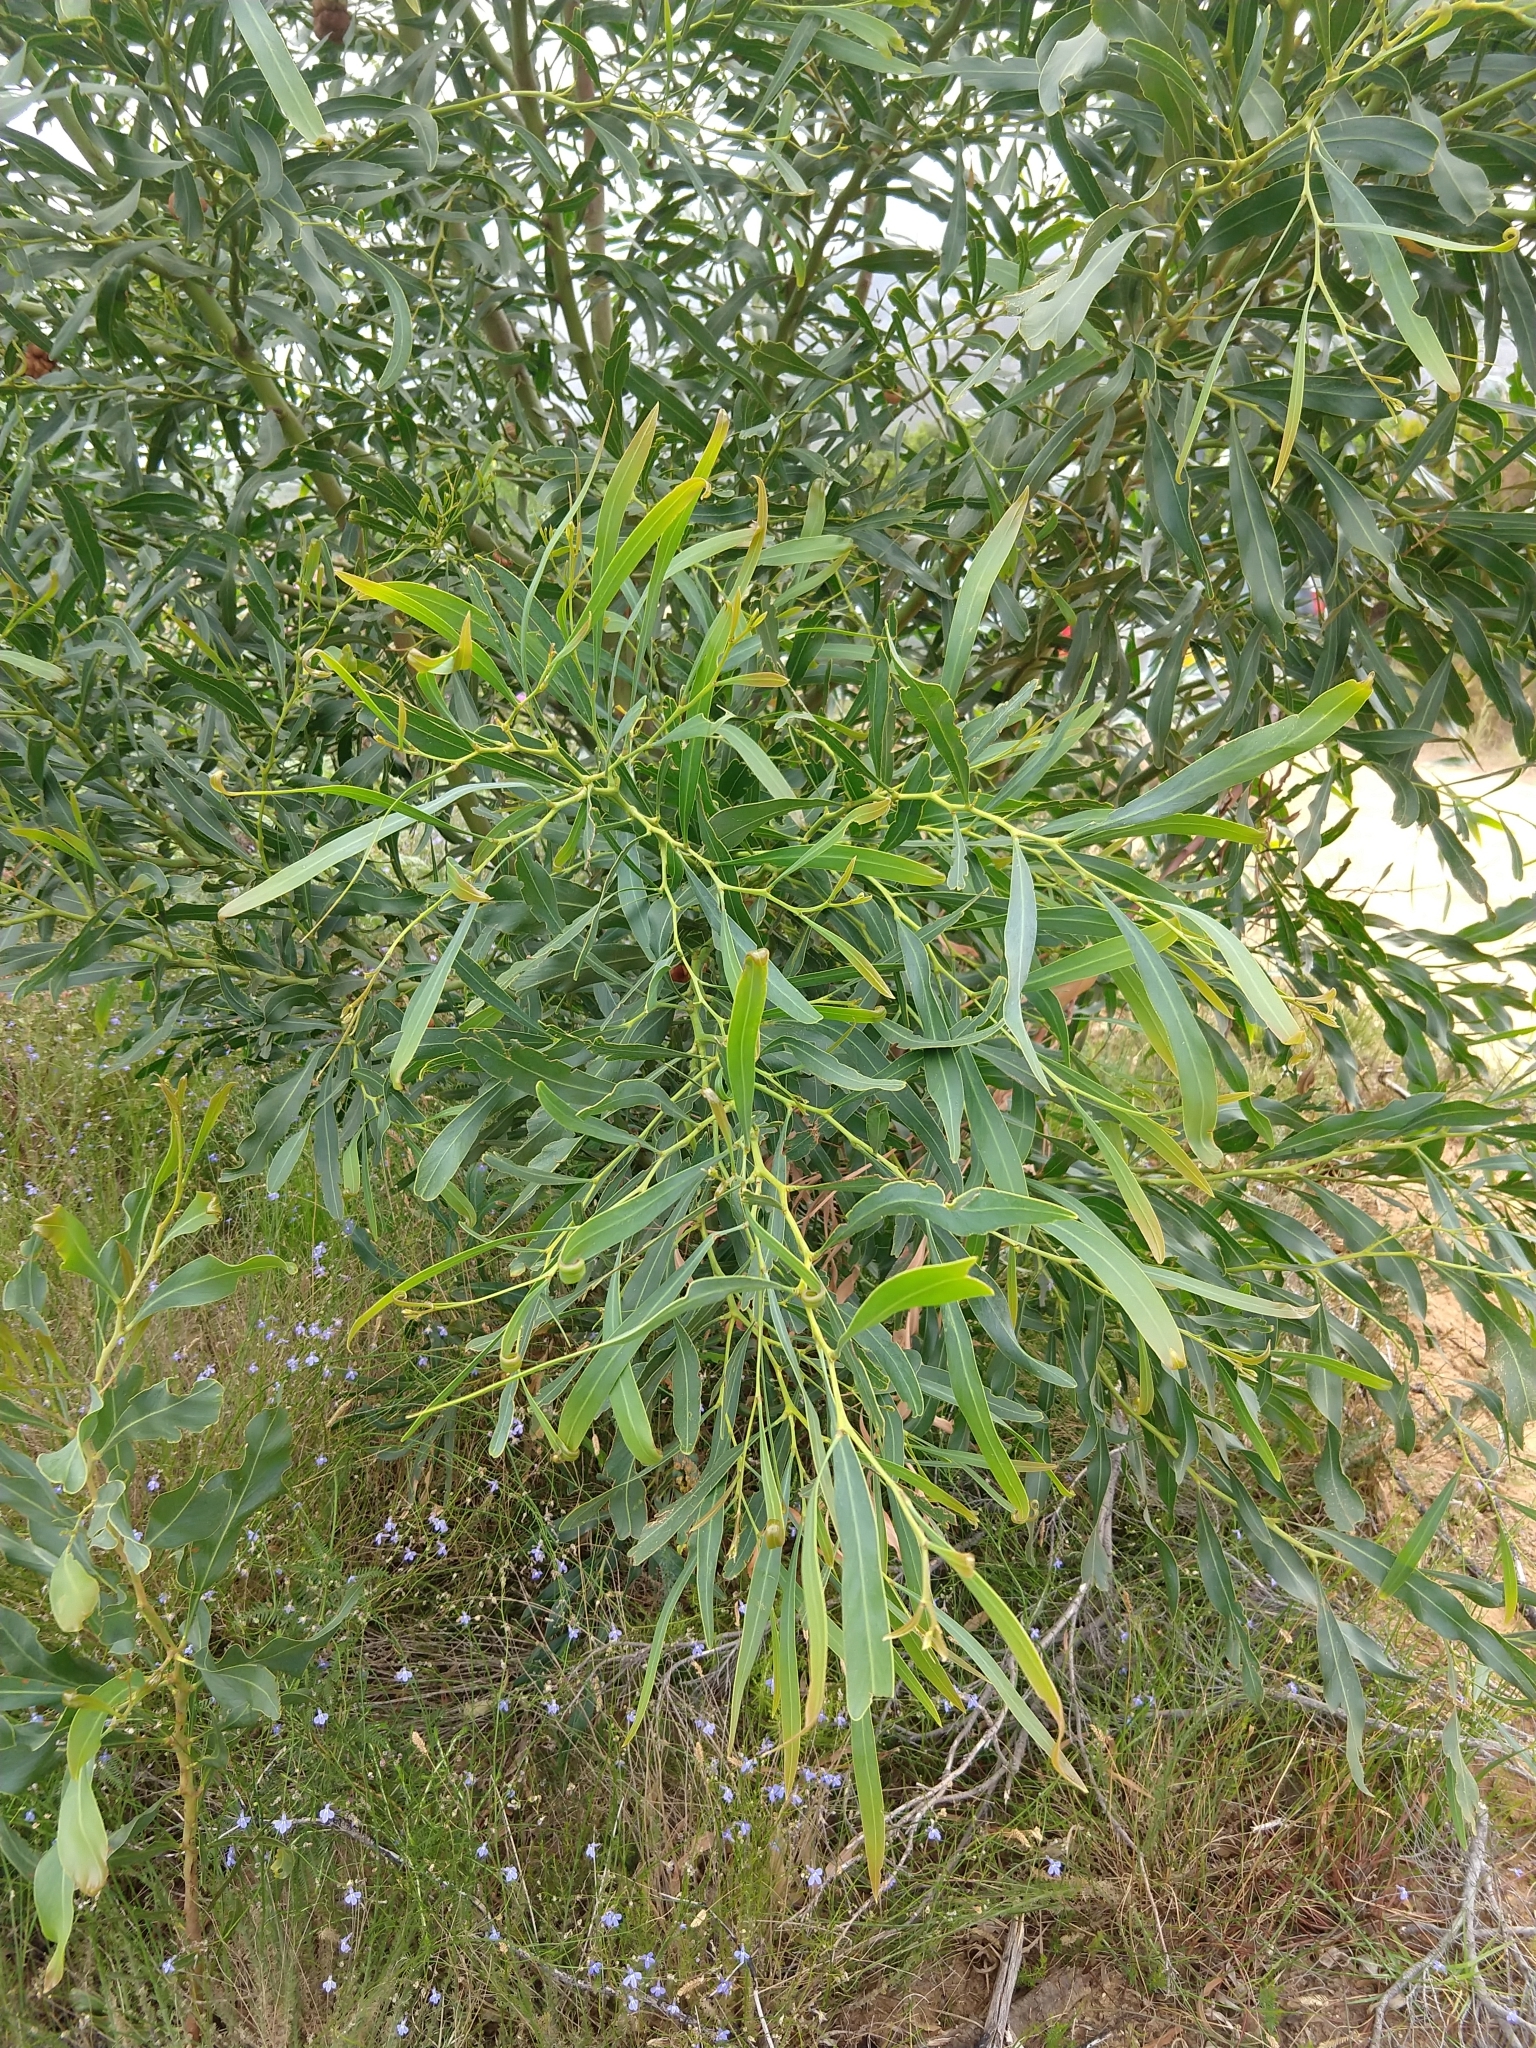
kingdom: Plantae
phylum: Tracheophyta
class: Magnoliopsida
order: Fabales
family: Fabaceae
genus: Acacia
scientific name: Acacia saligna
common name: Orange wattle
